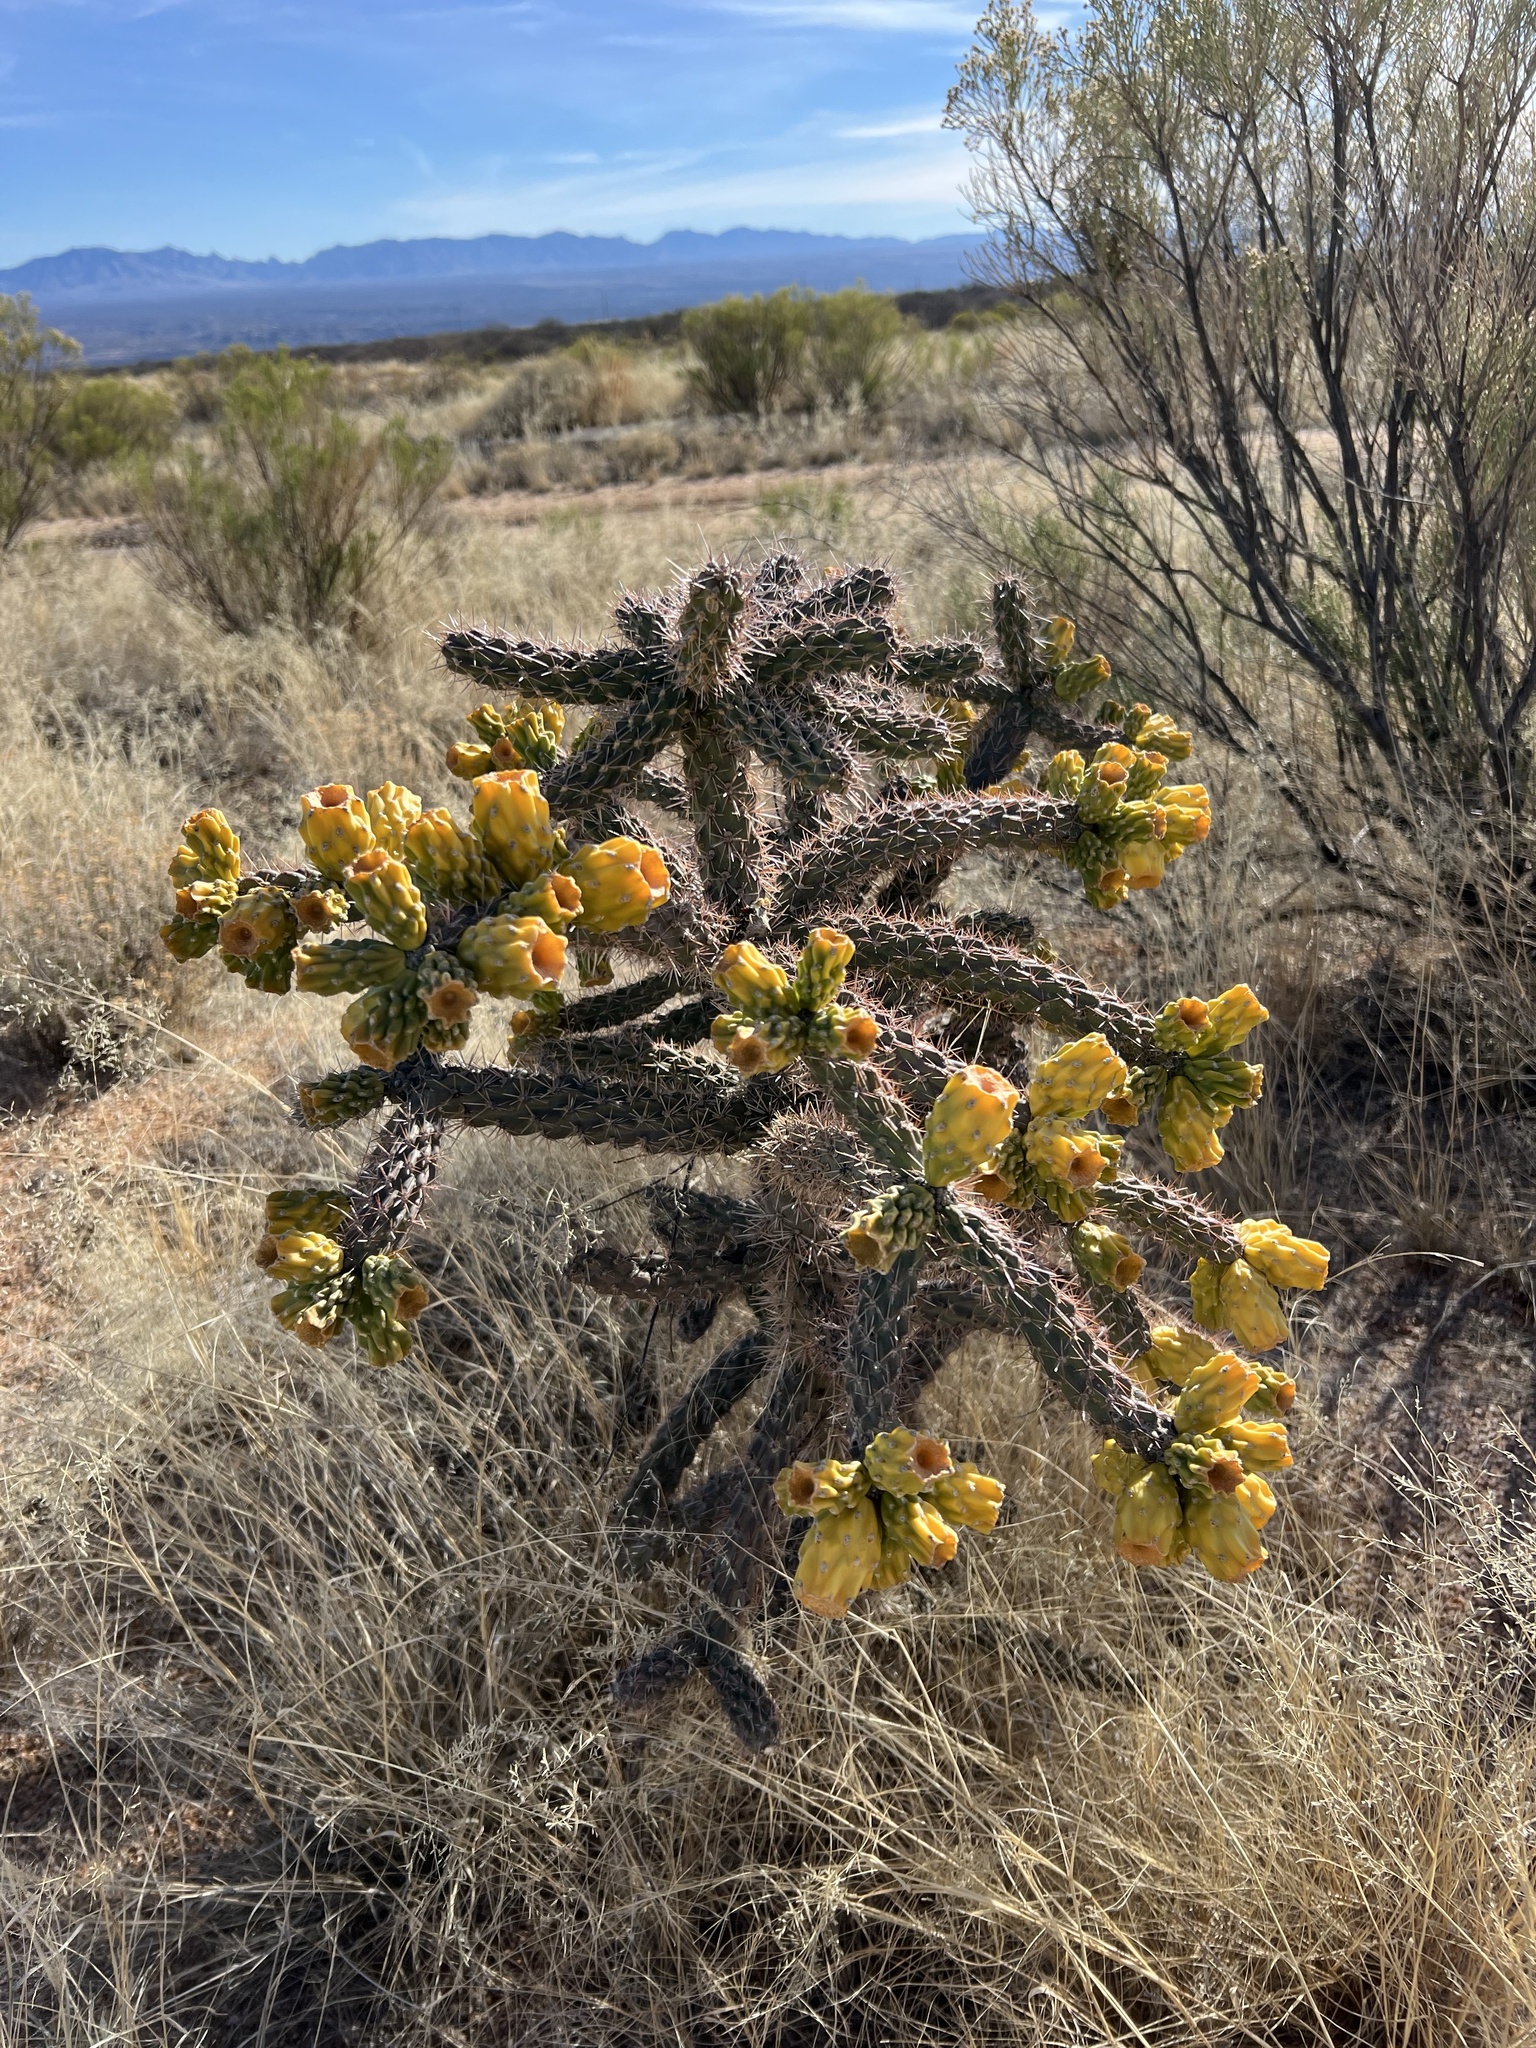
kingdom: Plantae
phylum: Tracheophyta
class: Magnoliopsida
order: Caryophyllales
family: Cactaceae
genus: Cylindropuntia
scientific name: Cylindropuntia imbricata
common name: Candelabrum cactus
